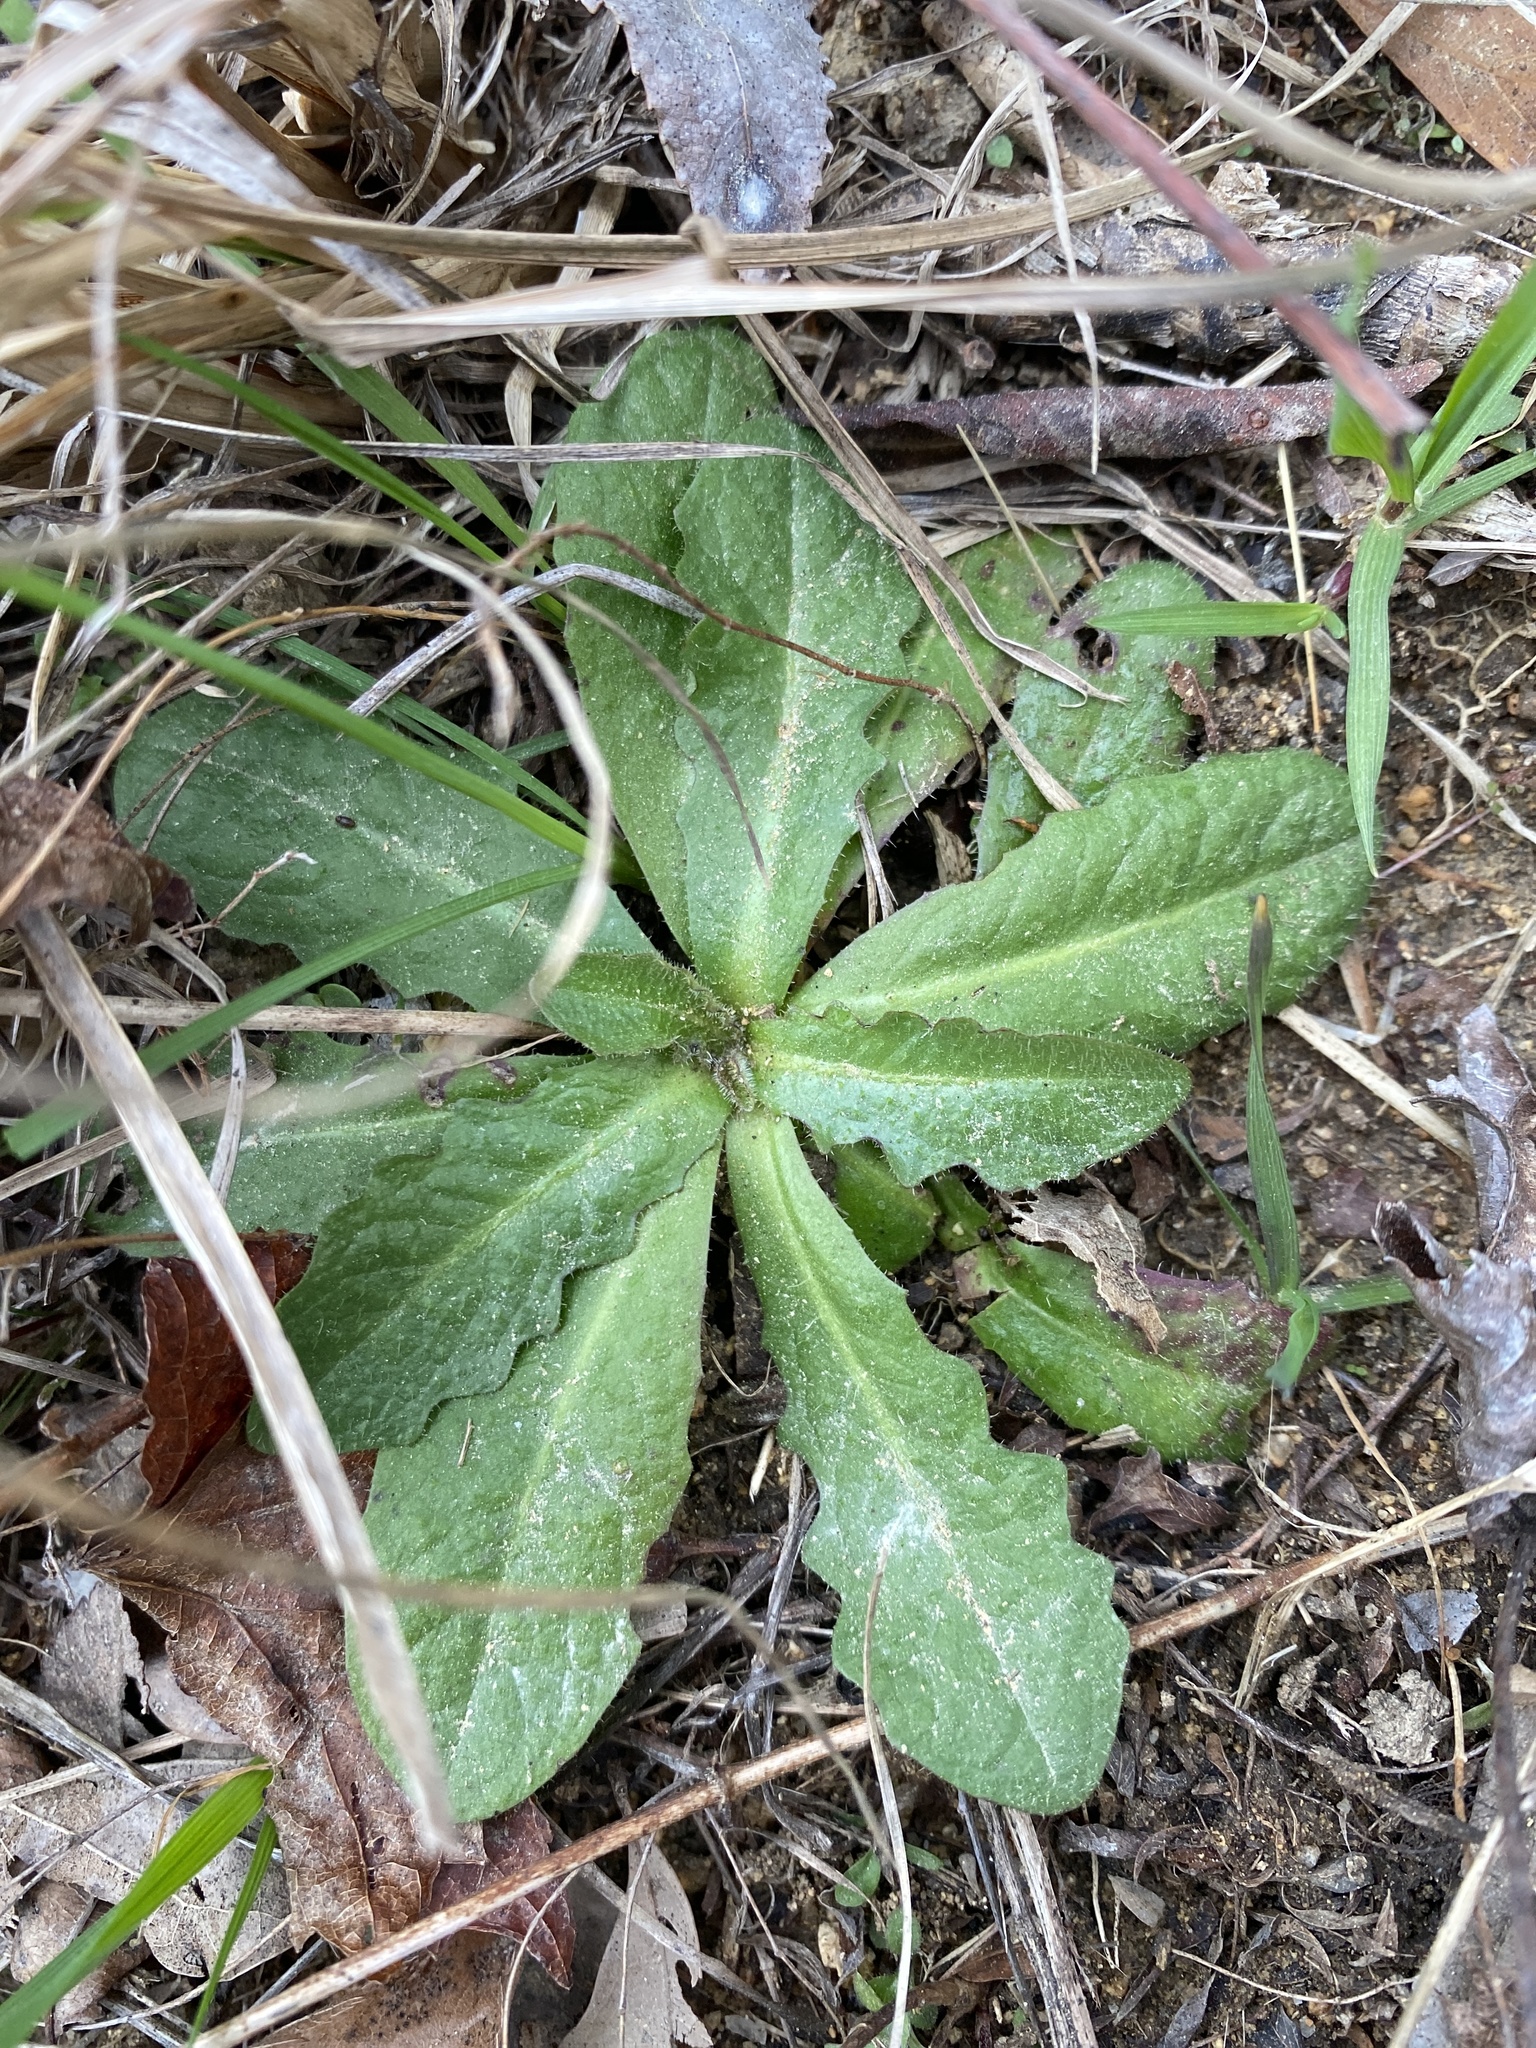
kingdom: Plantae
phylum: Tracheophyta
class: Magnoliopsida
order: Asterales
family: Asteraceae
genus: Hypochaeris
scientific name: Hypochaeris radicata
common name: Flatweed
